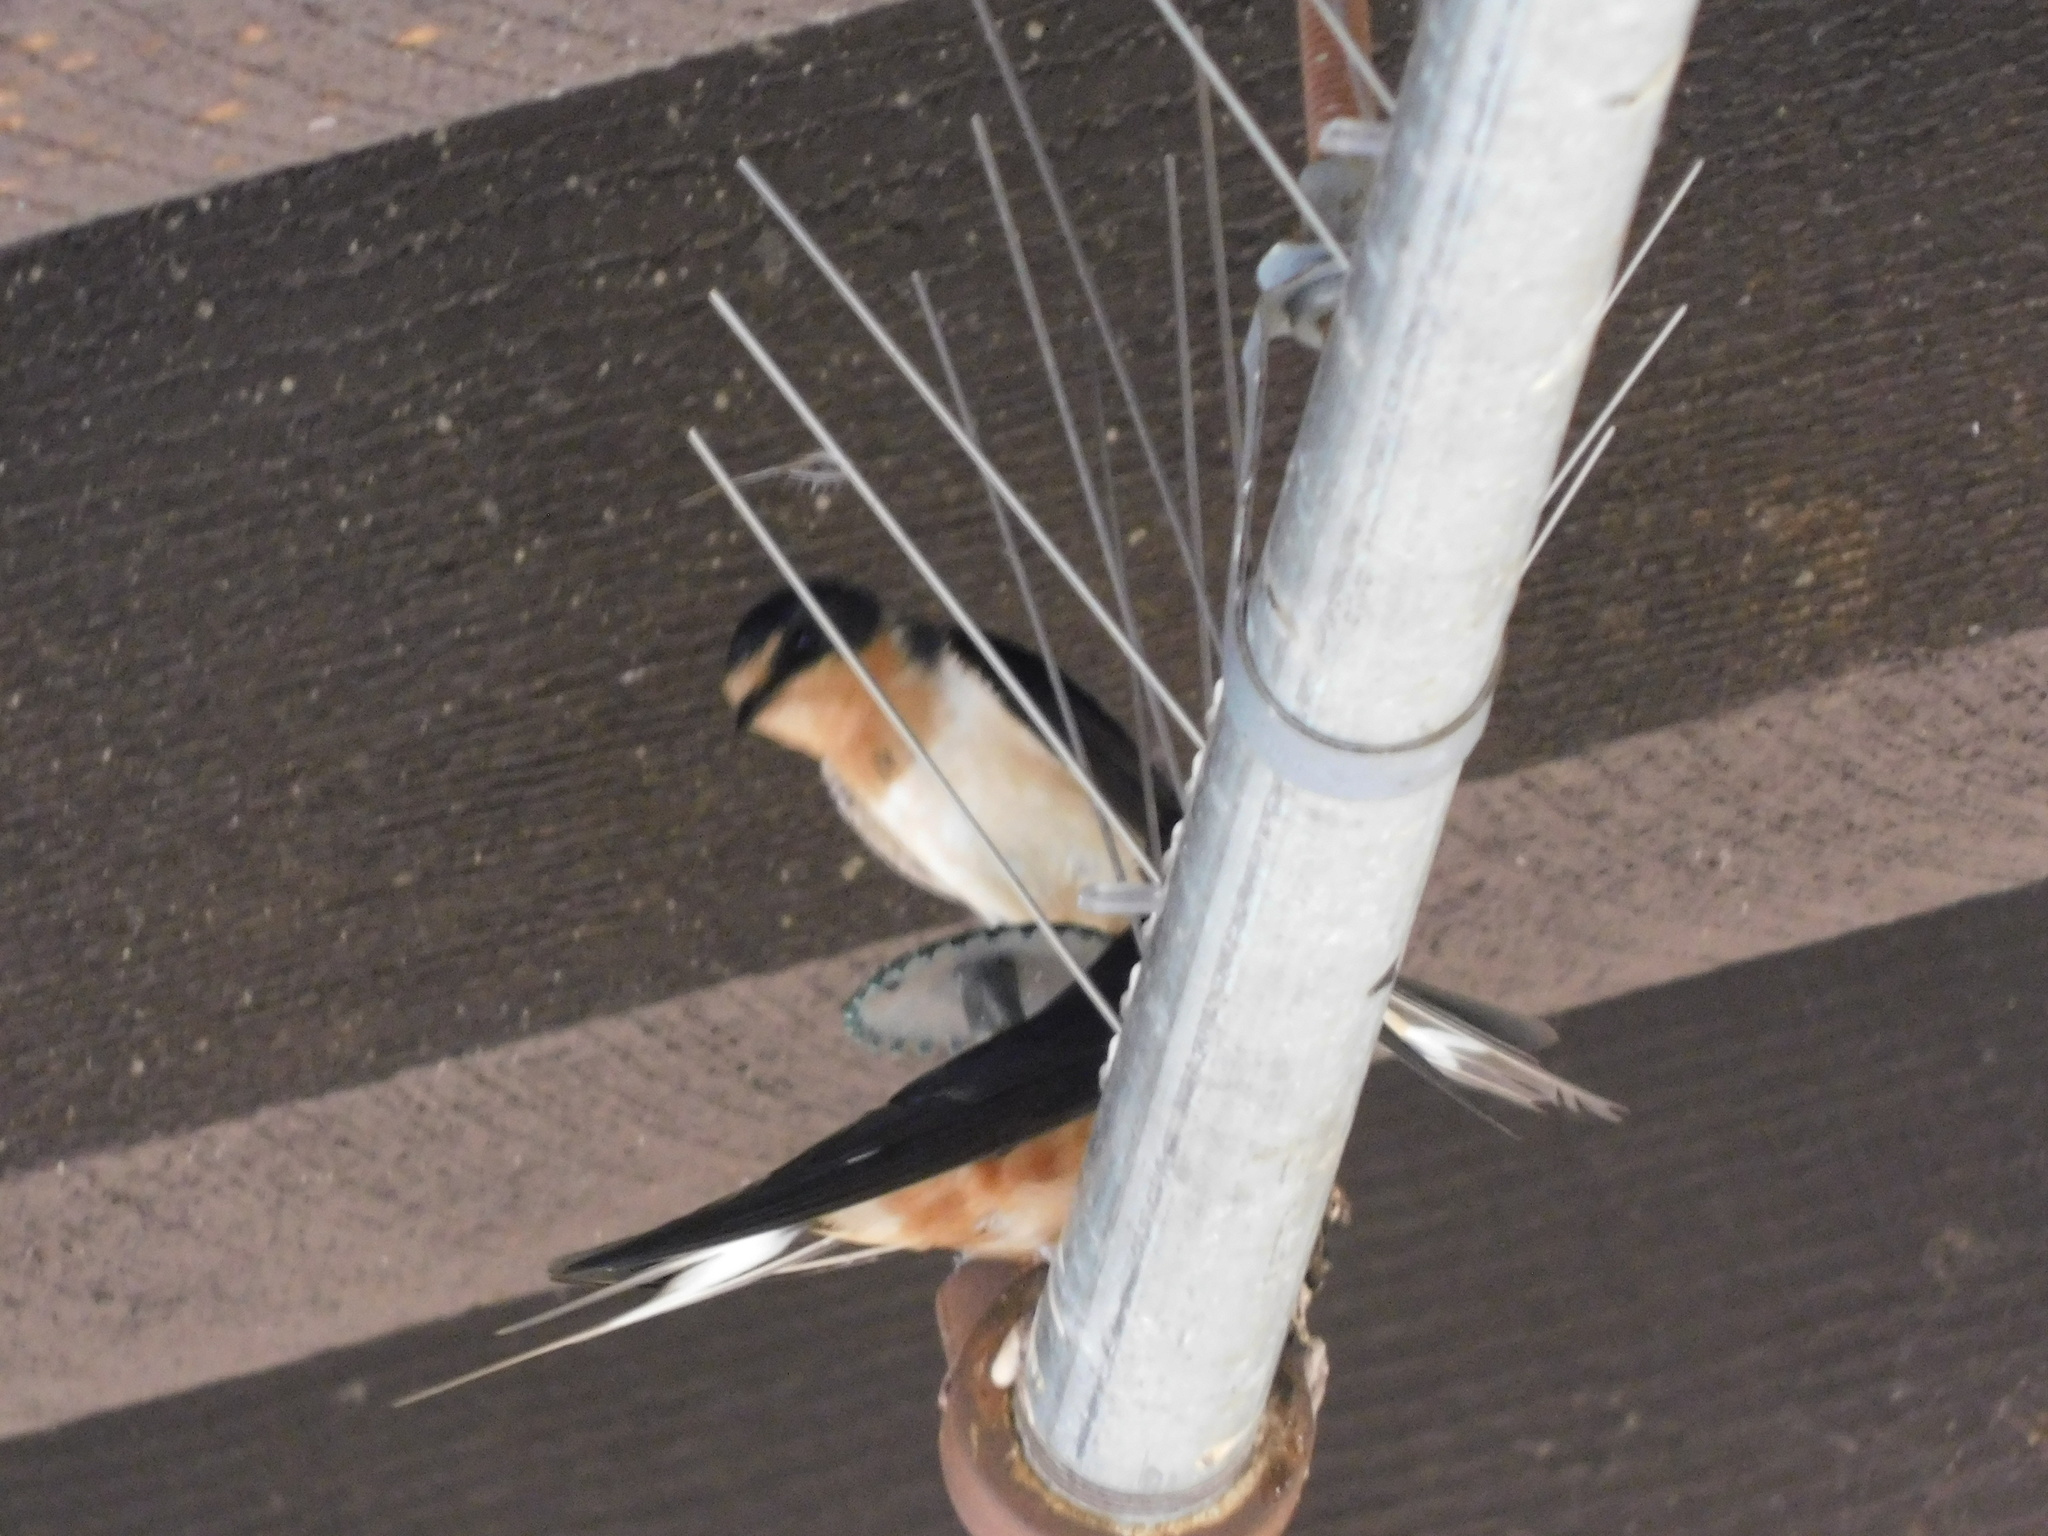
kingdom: Animalia
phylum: Chordata
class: Aves
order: Passeriformes
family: Hirundinidae
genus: Hirundo
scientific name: Hirundo rustica
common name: Barn swallow
